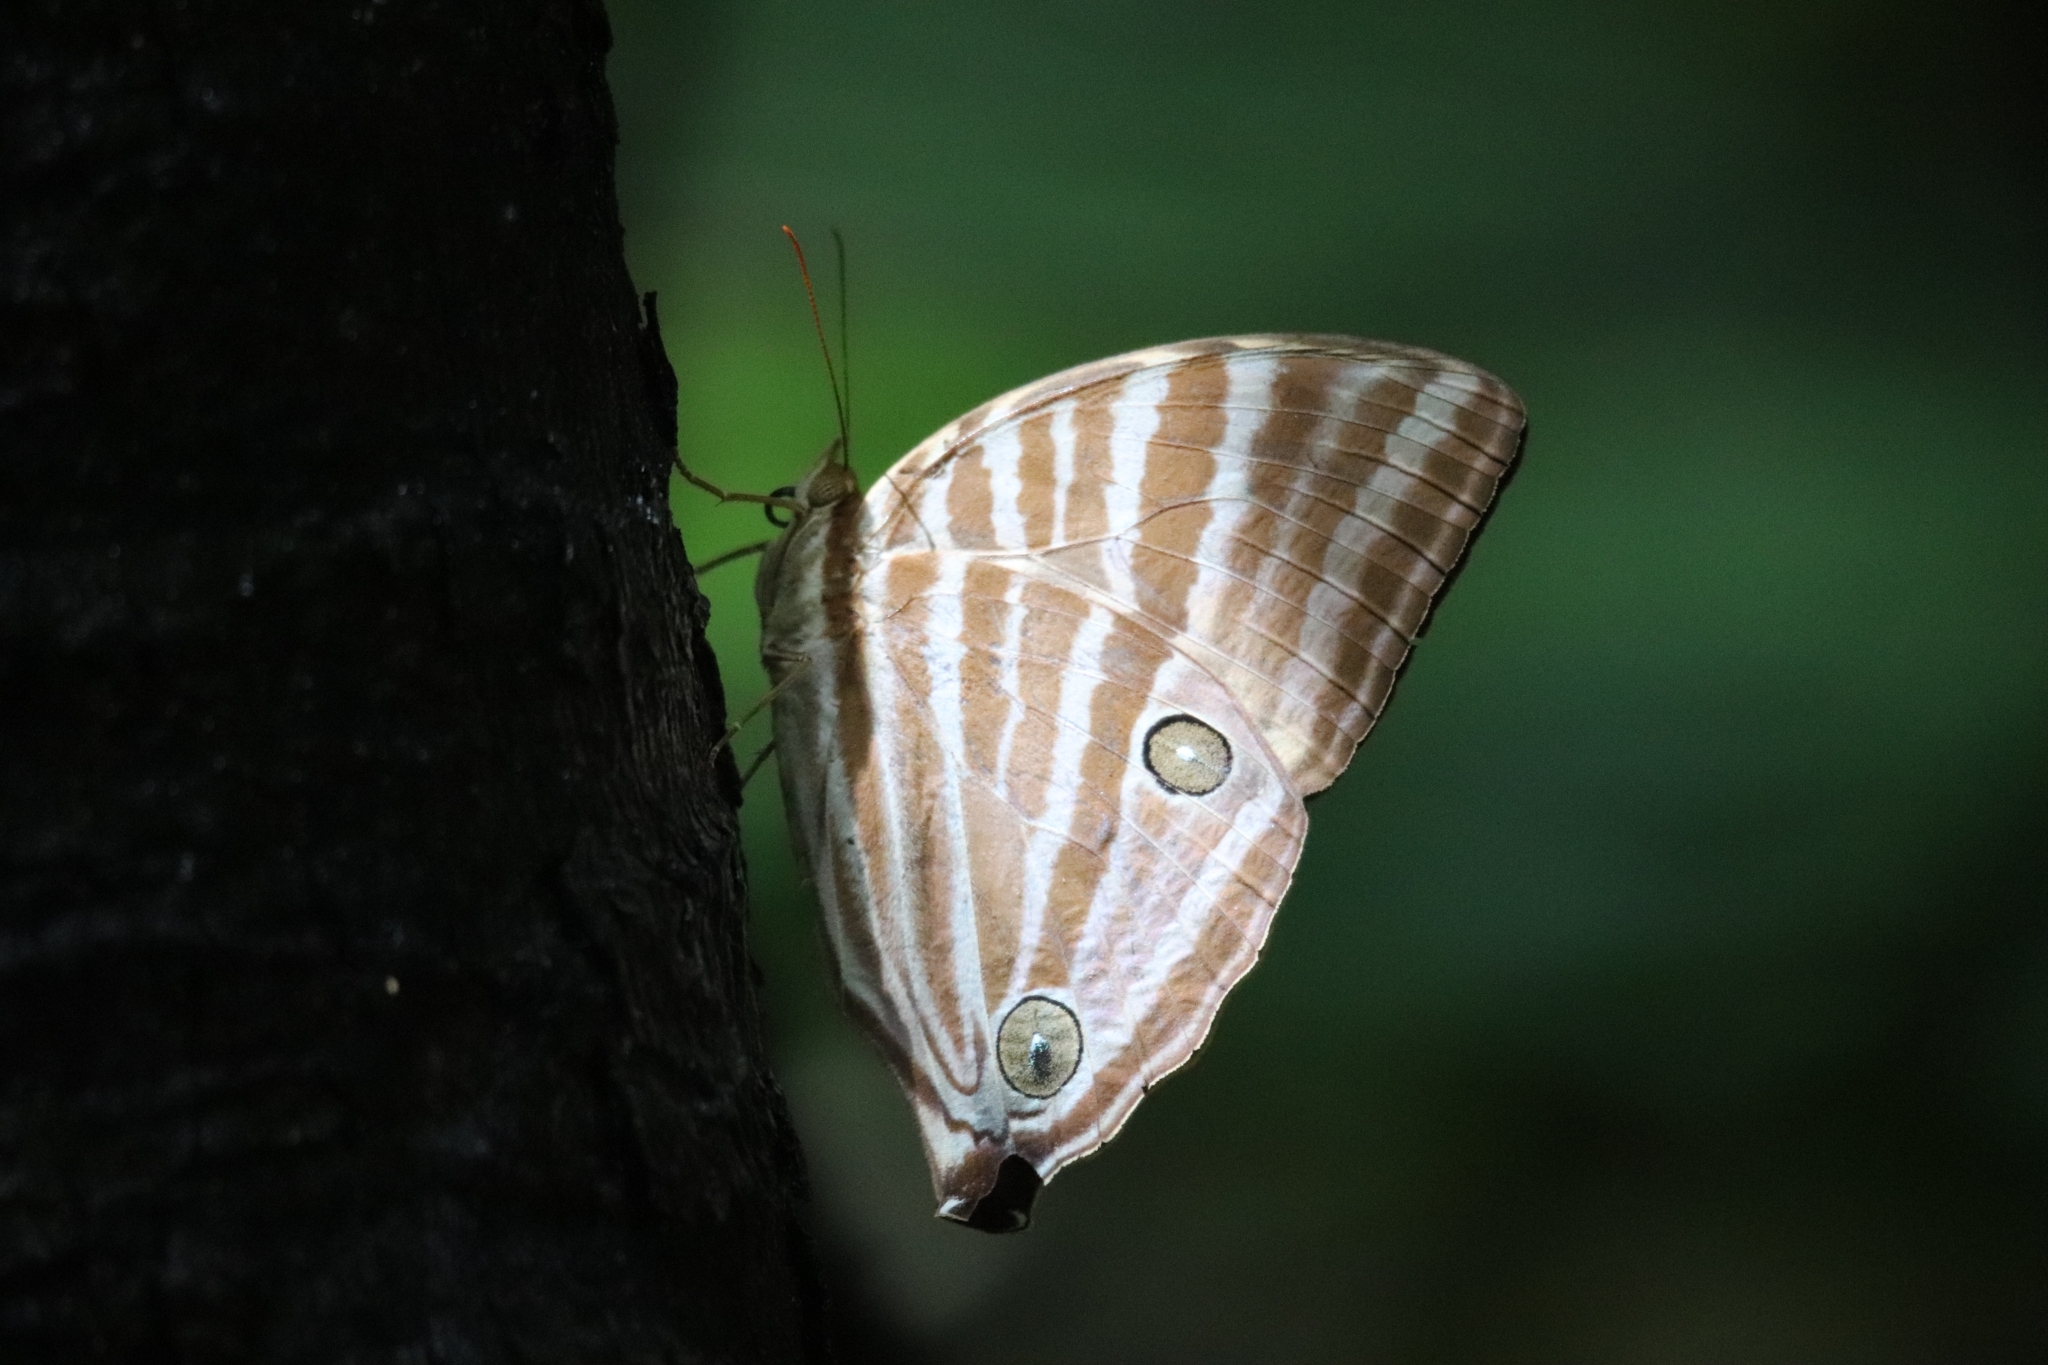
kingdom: Animalia
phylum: Arthropoda
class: Insecta
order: Lepidoptera
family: Nymphalidae
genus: Amathusia
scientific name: Amathusia virgata
